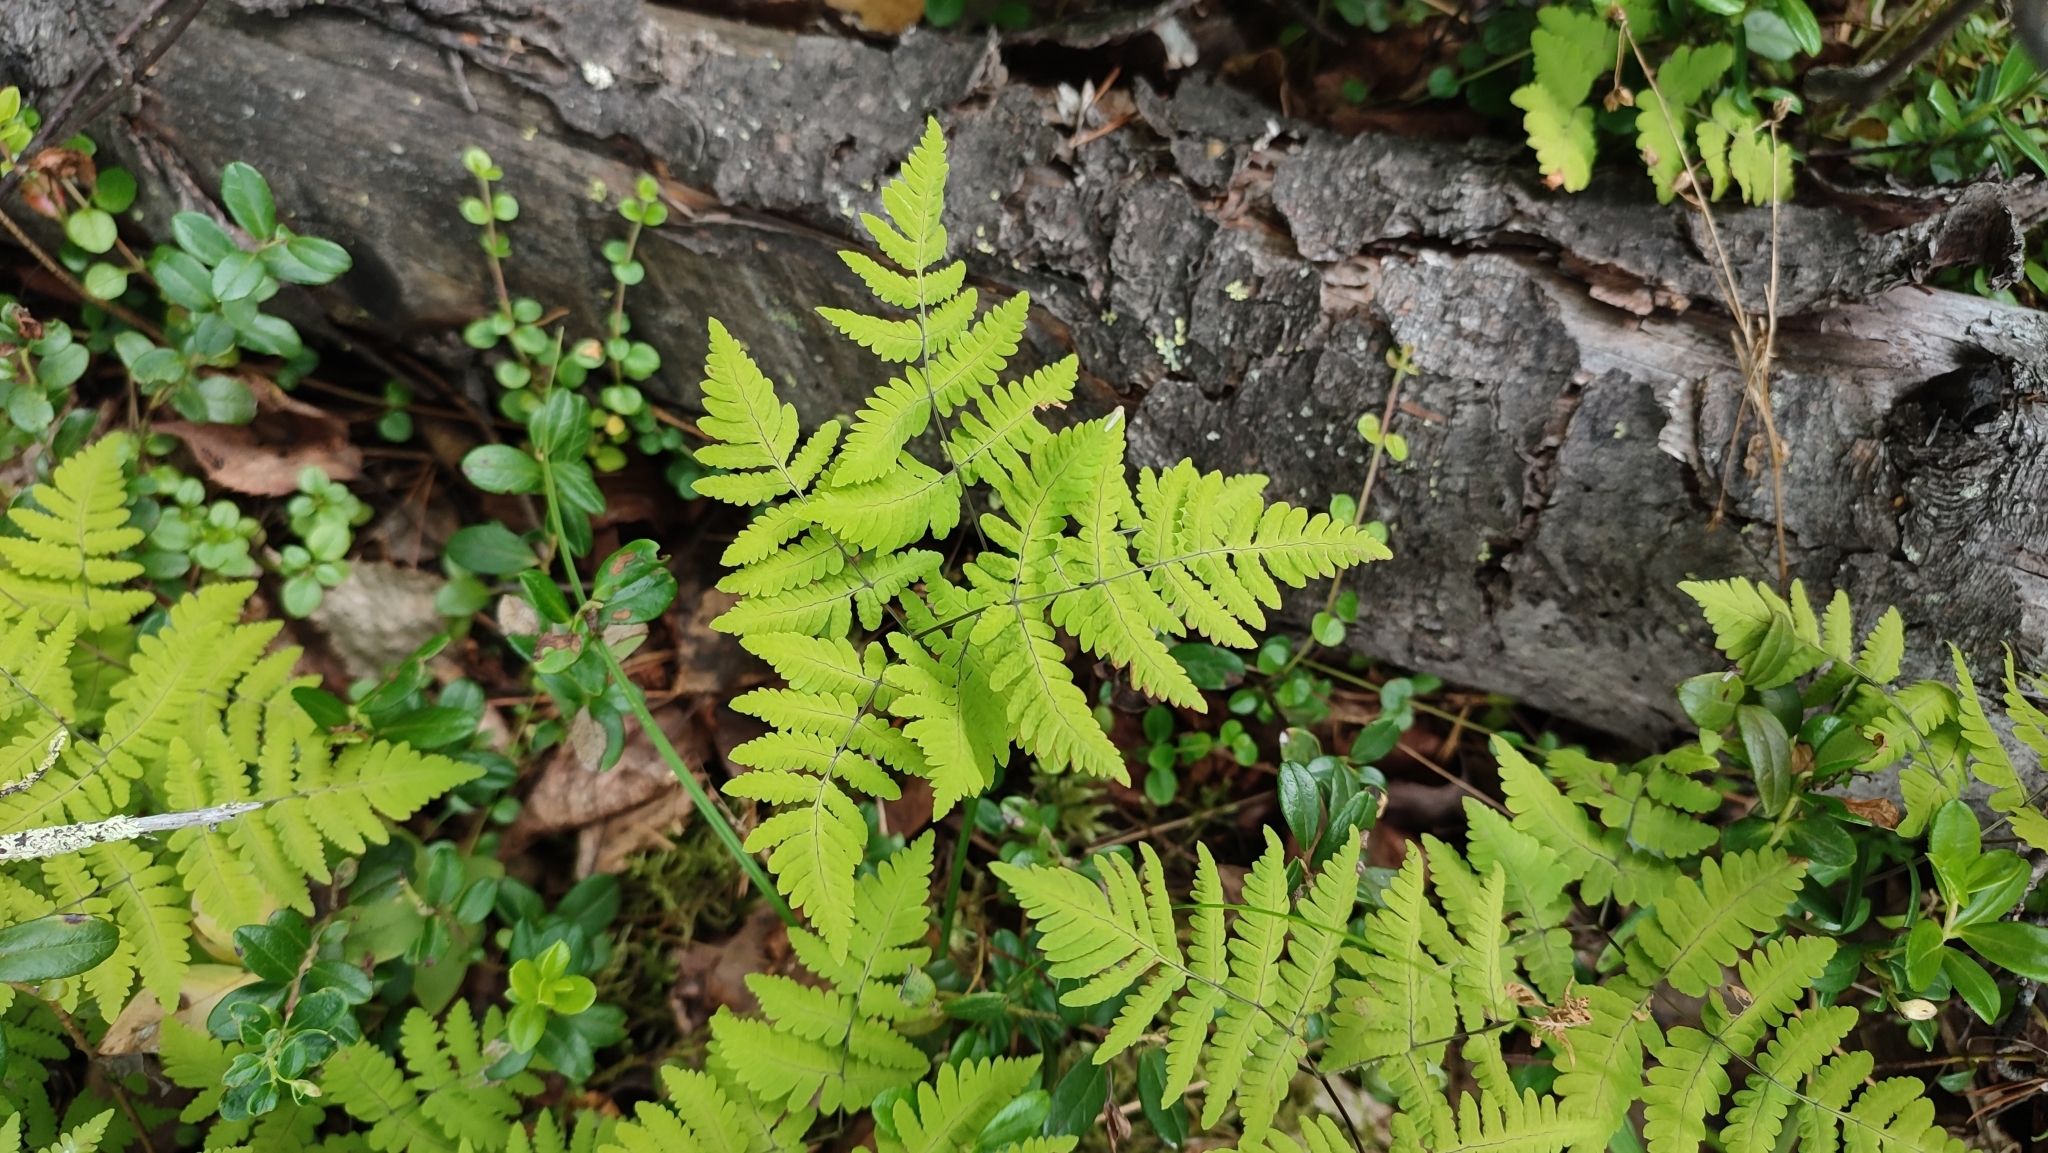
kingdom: Plantae
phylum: Tracheophyta
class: Polypodiopsida
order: Polypodiales
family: Cystopteridaceae
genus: Gymnocarpium
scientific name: Gymnocarpium dryopteris
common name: Oak fern
